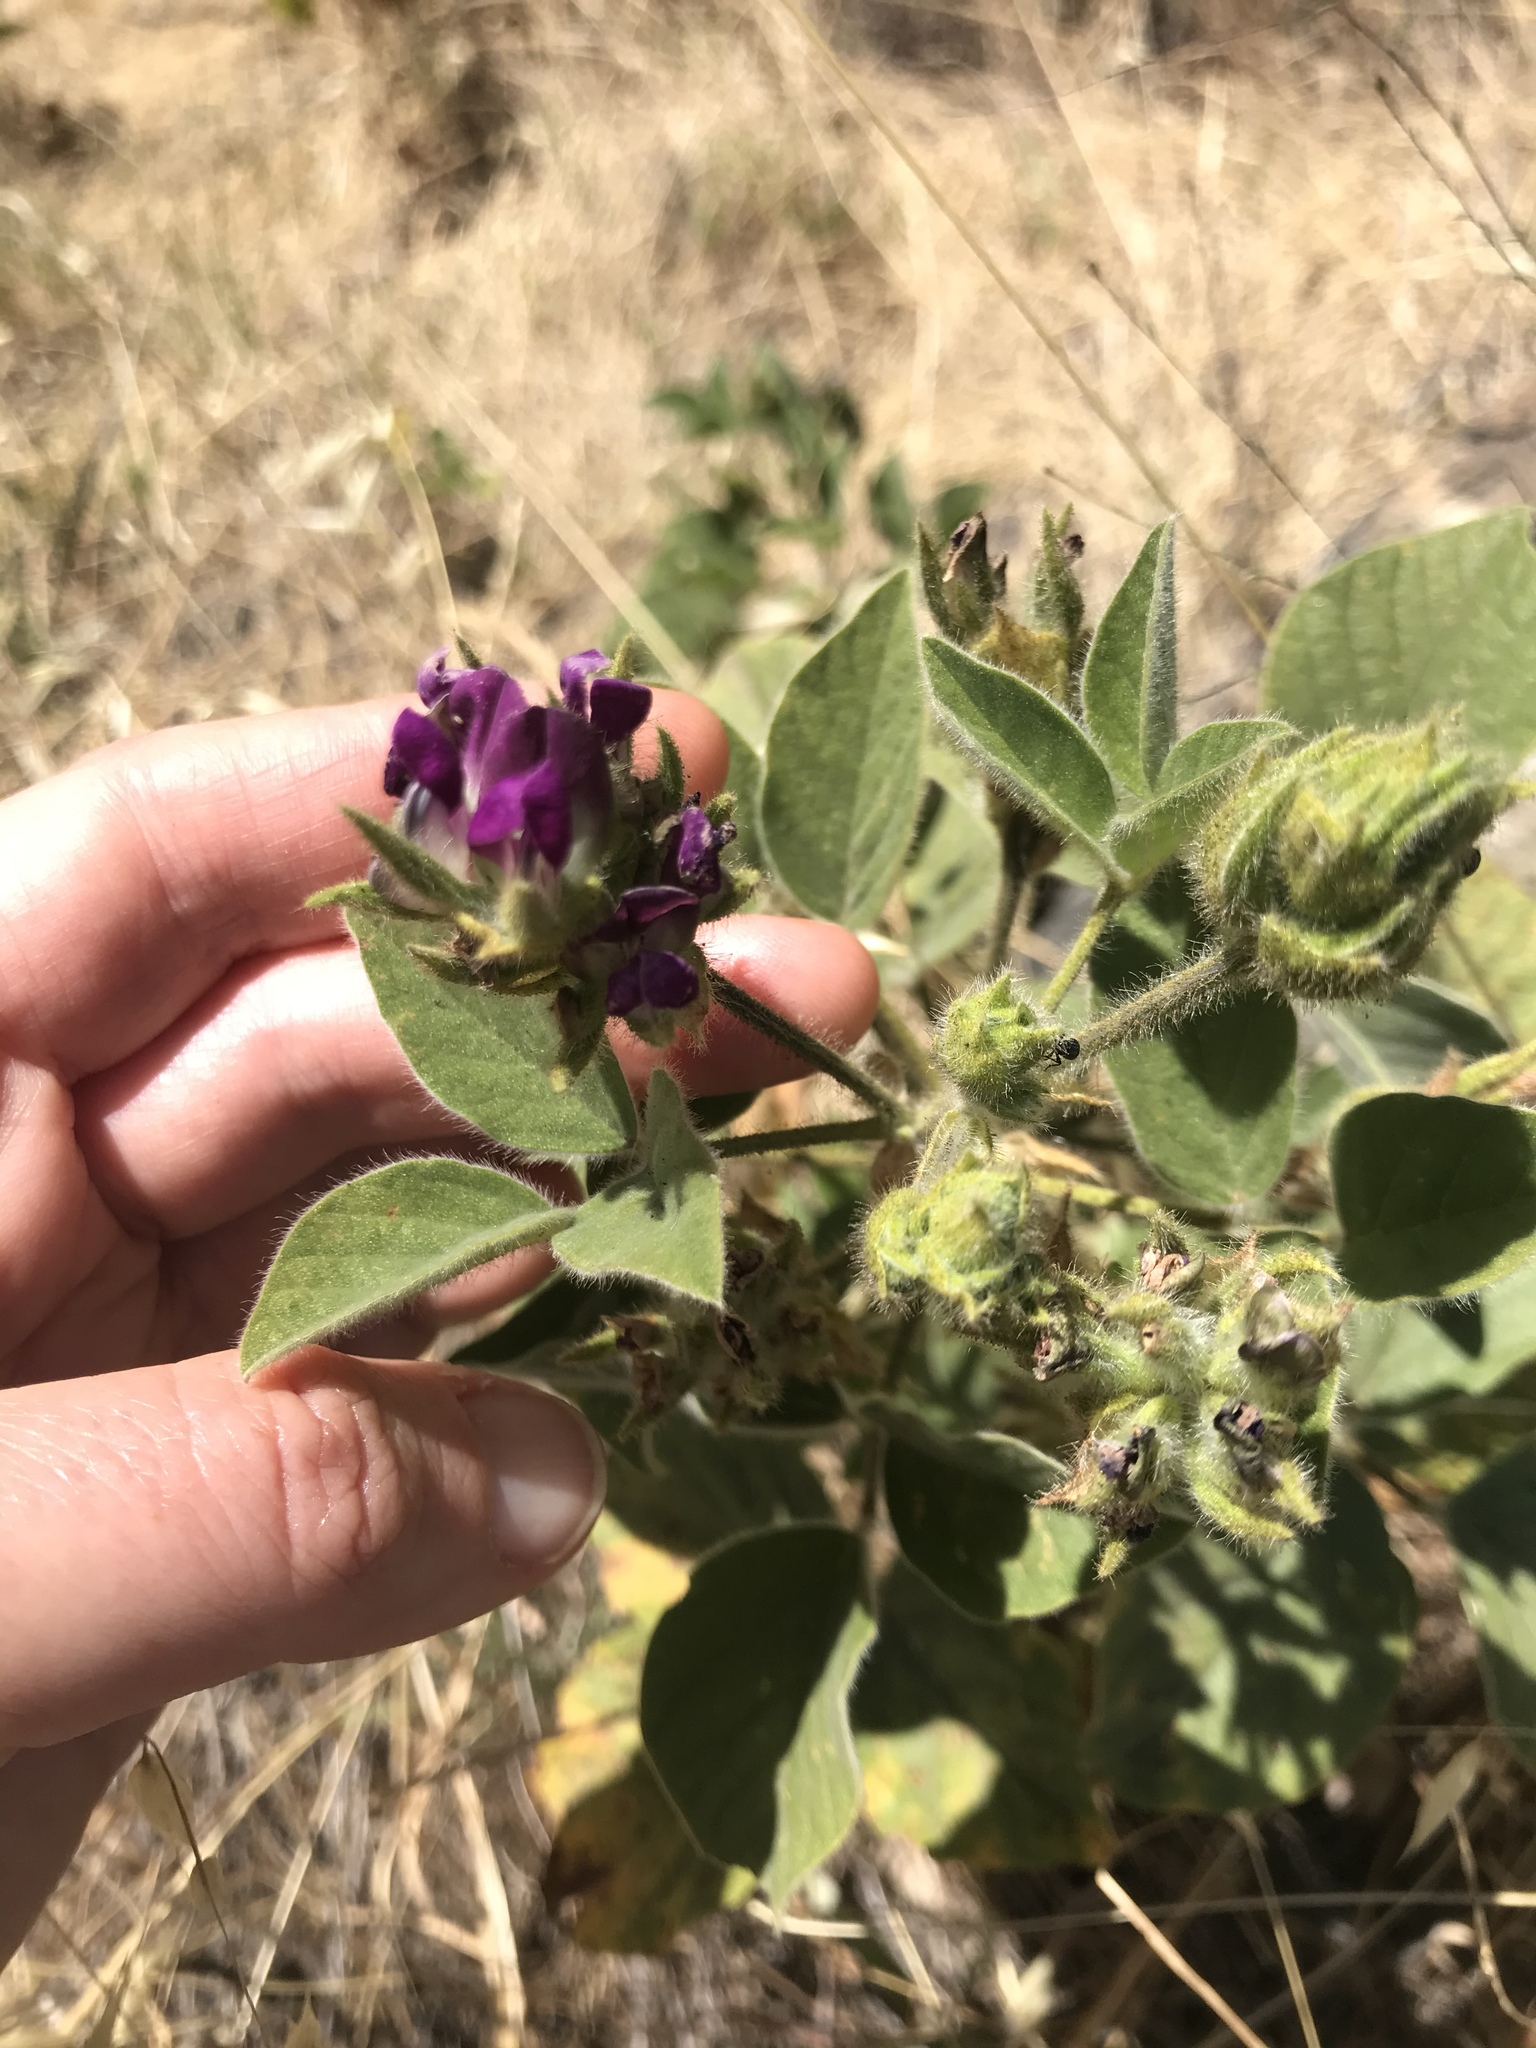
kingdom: Plantae
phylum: Tracheophyta
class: Magnoliopsida
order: Fabales
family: Fabaceae
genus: Hoita
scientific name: Hoita strobilina
